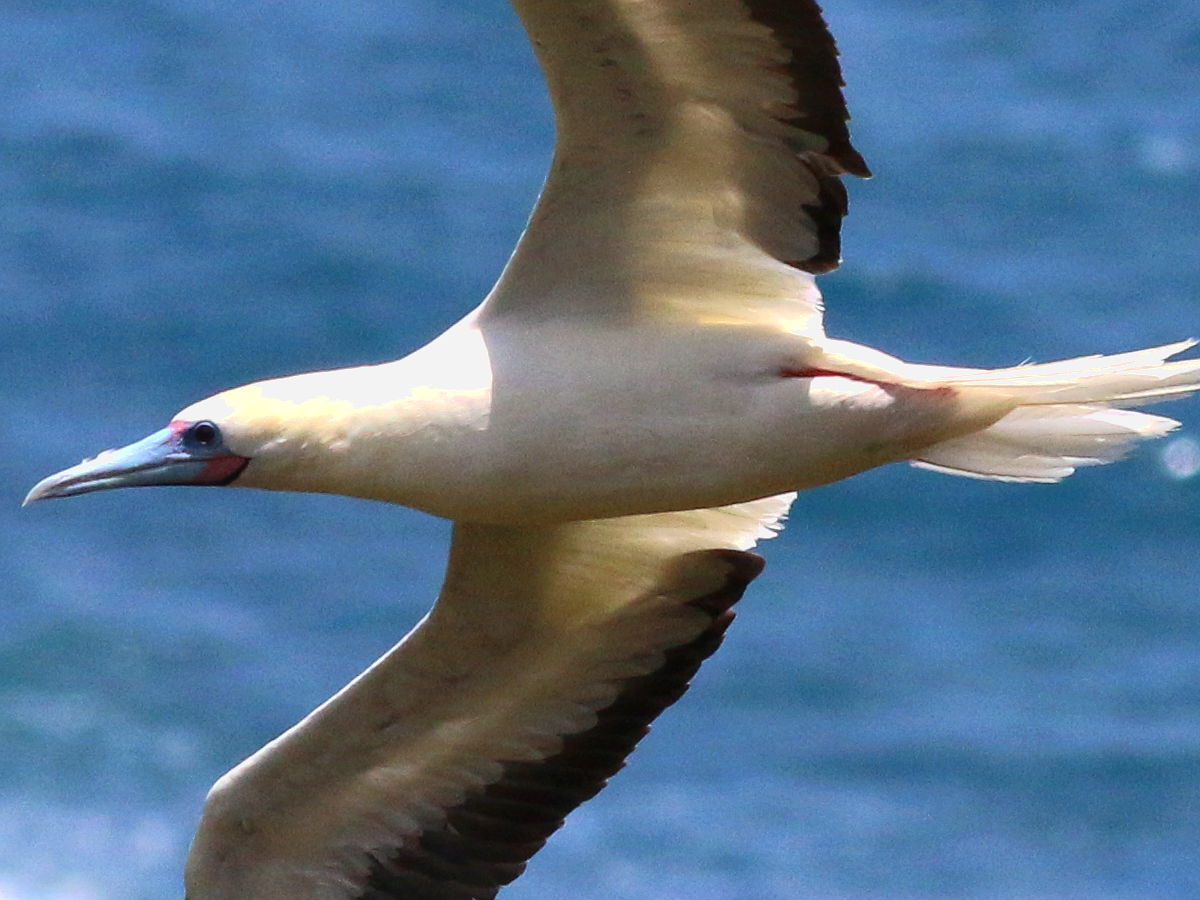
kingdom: Animalia
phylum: Chordata
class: Aves
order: Suliformes
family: Sulidae
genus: Sula
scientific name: Sula sula
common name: Red-footed booby
